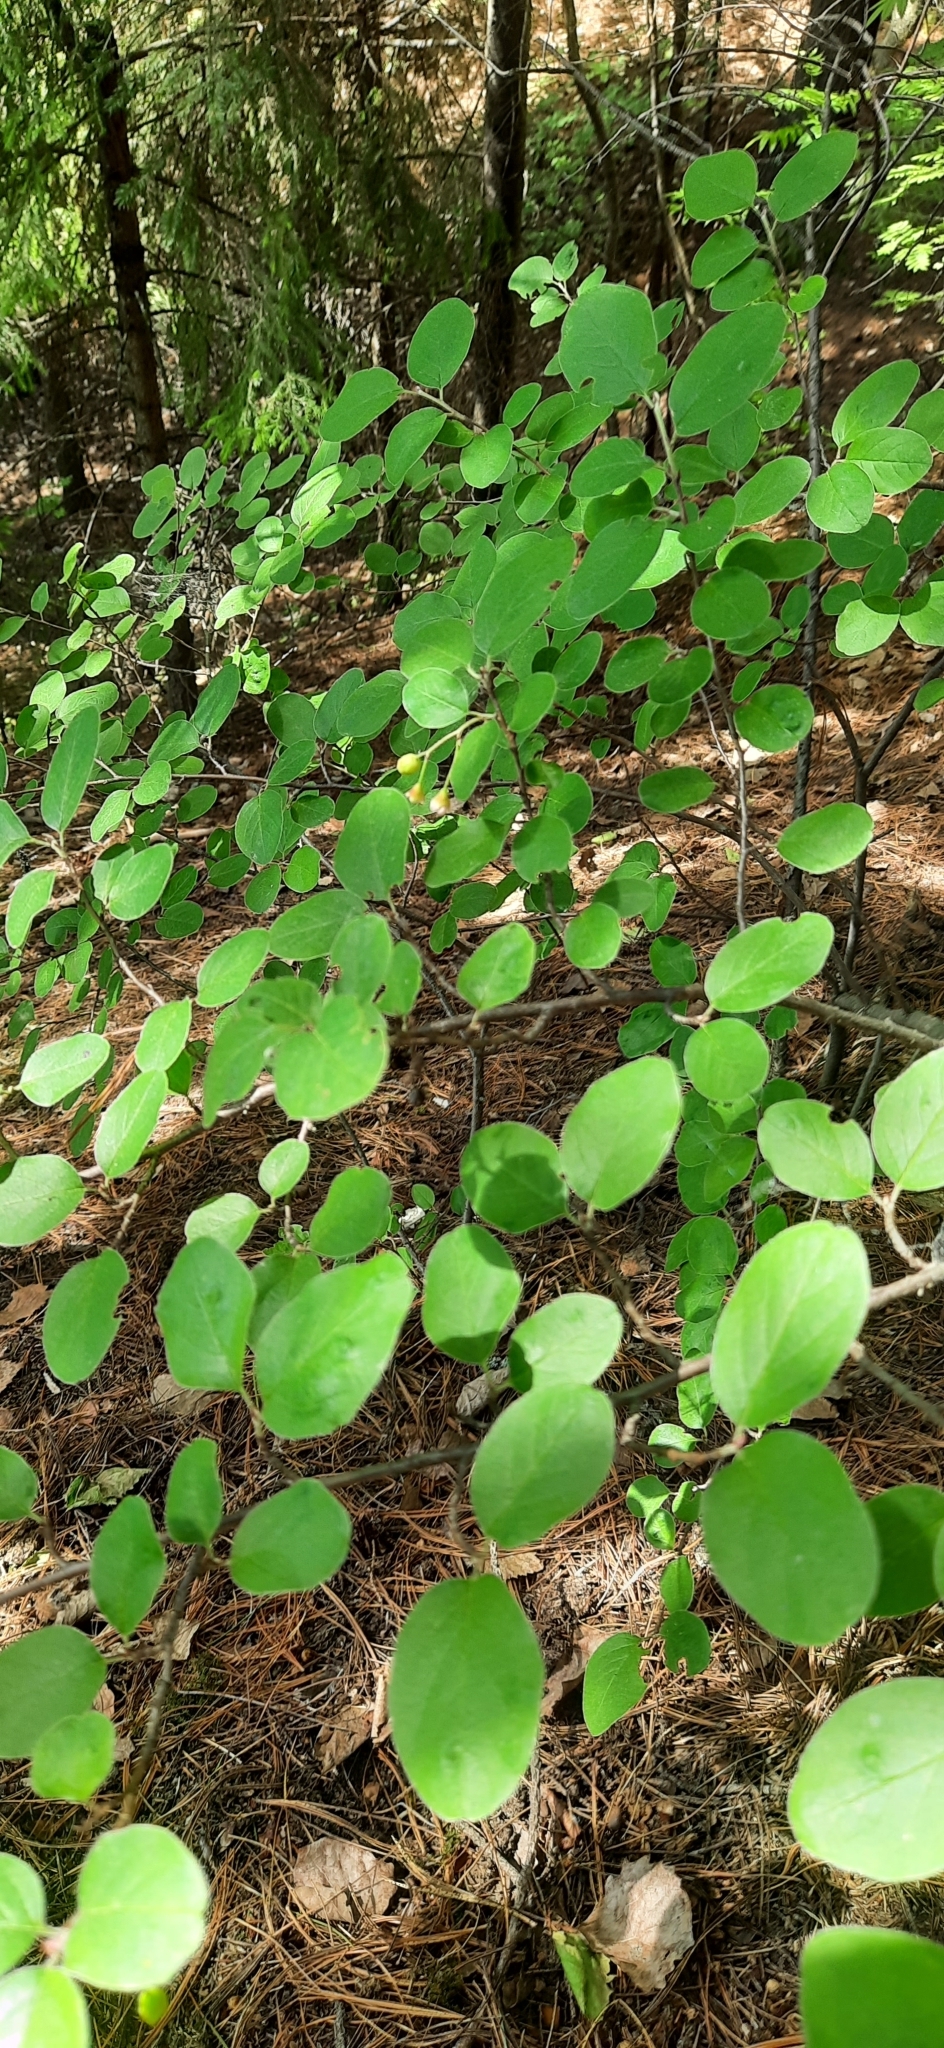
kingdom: Plantae
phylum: Tracheophyta
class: Magnoliopsida
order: Rosales
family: Rosaceae
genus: Cotoneaster
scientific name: Cotoneaster melanocarpus
